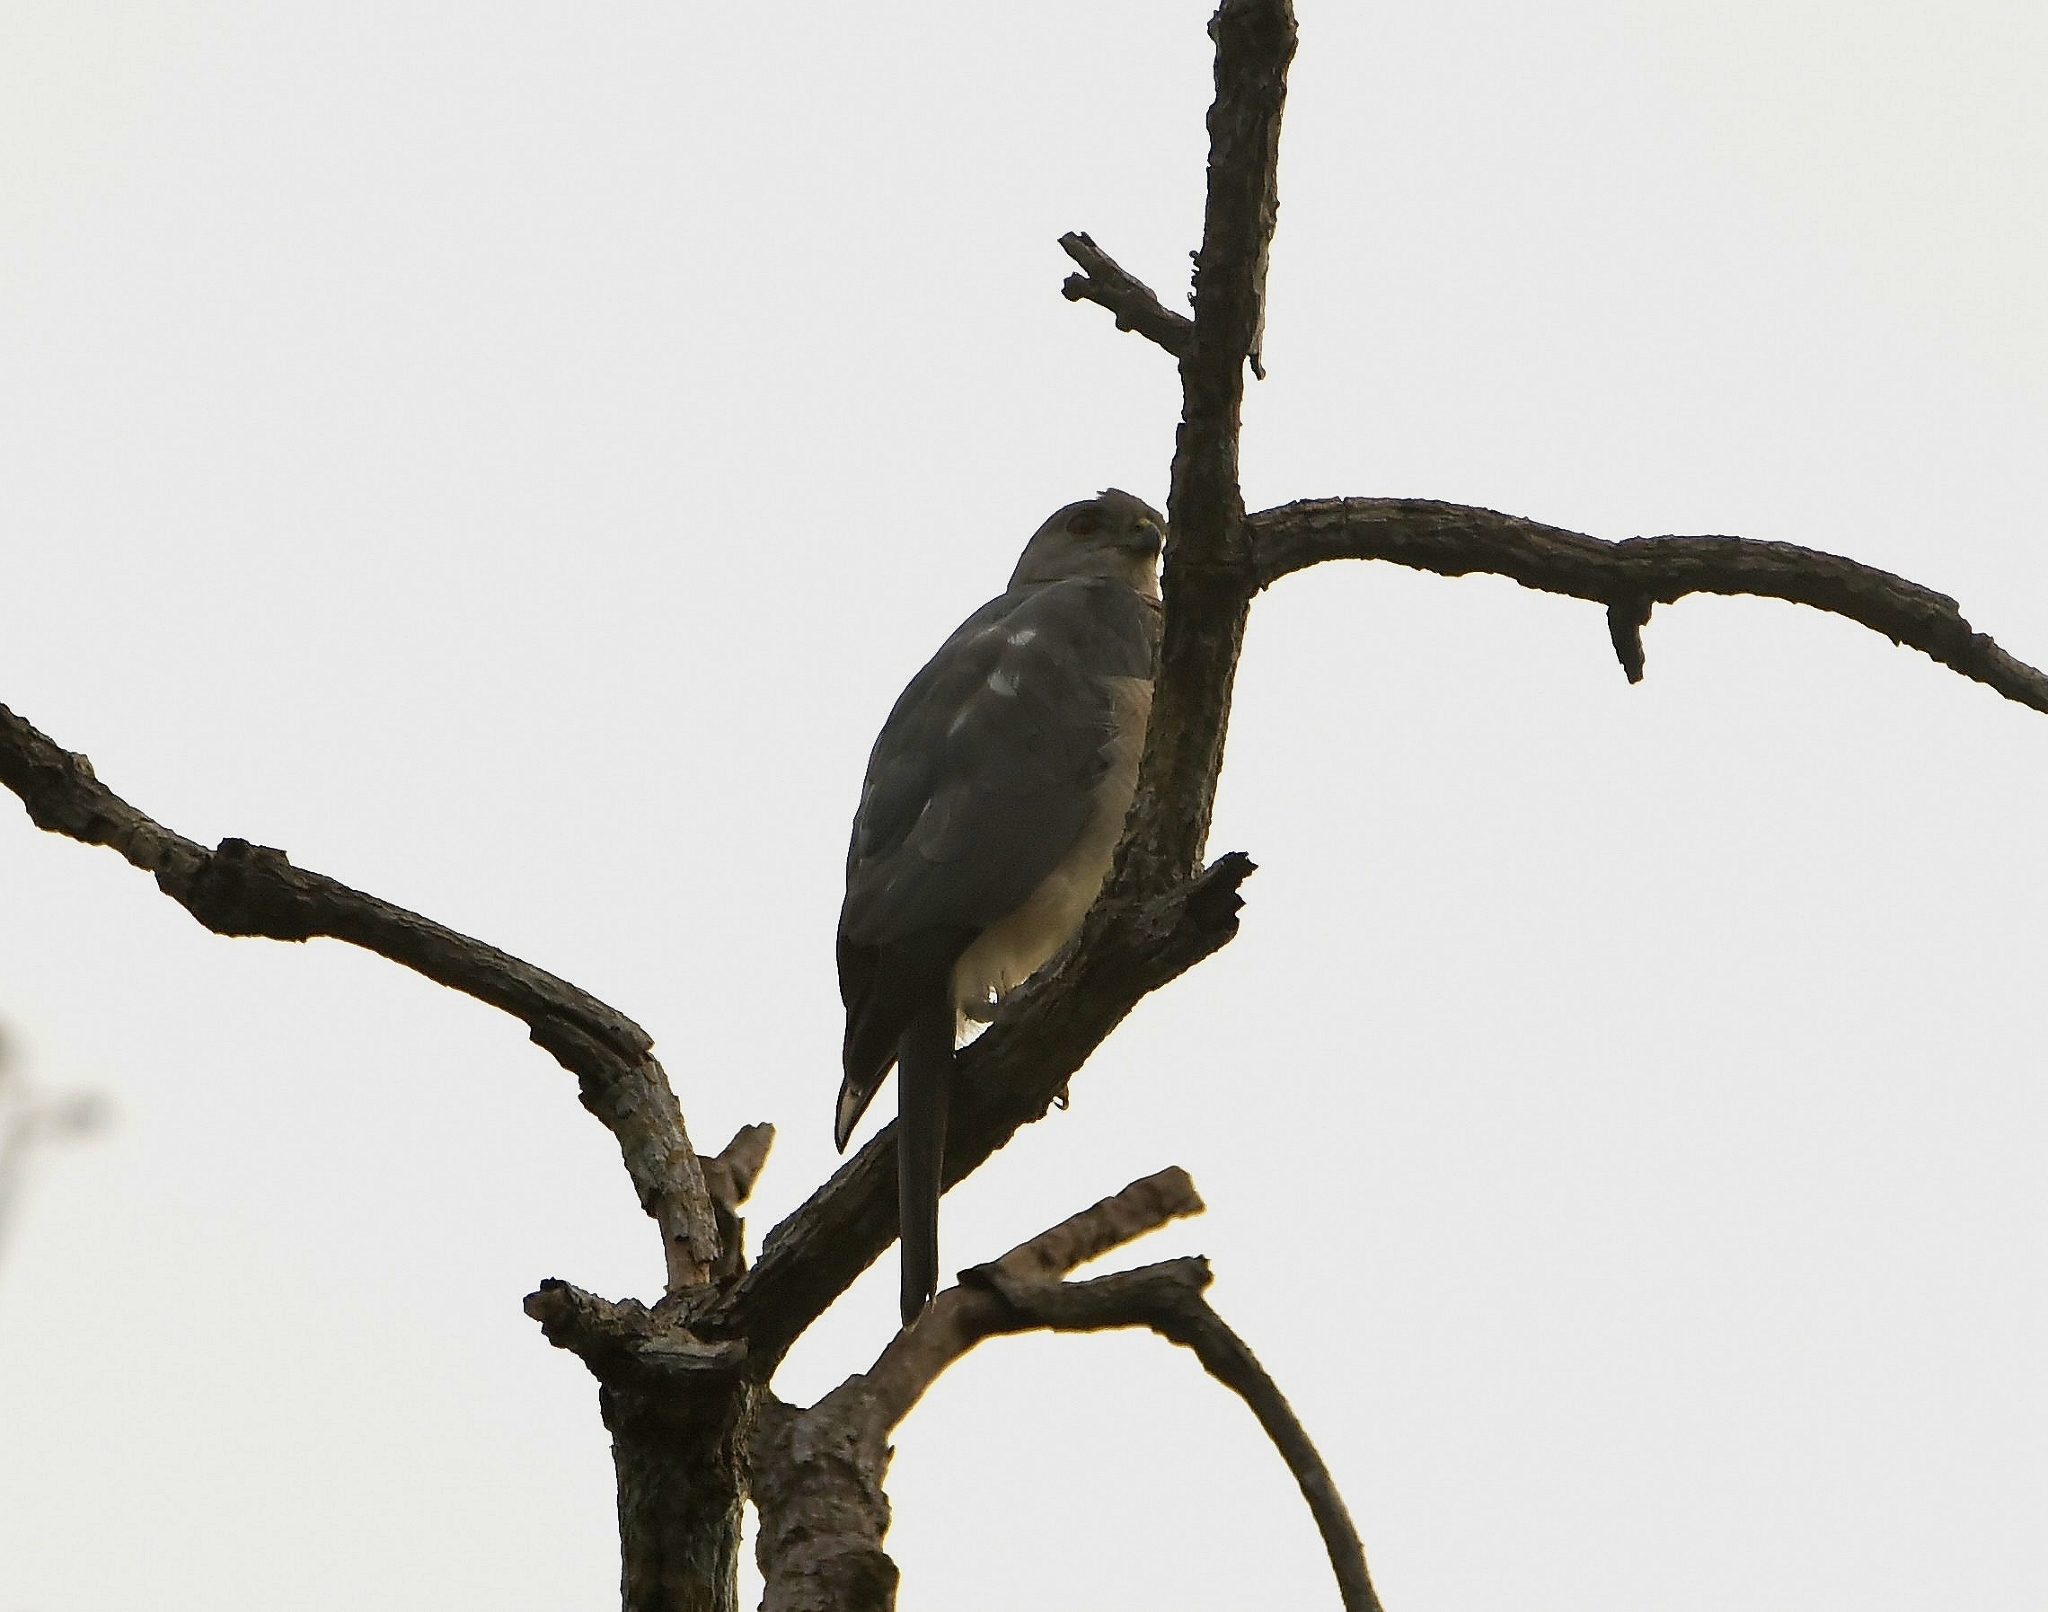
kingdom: Animalia
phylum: Chordata
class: Aves
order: Accipitriformes
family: Accipitridae
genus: Accipiter
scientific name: Accipiter badius
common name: Shikra
